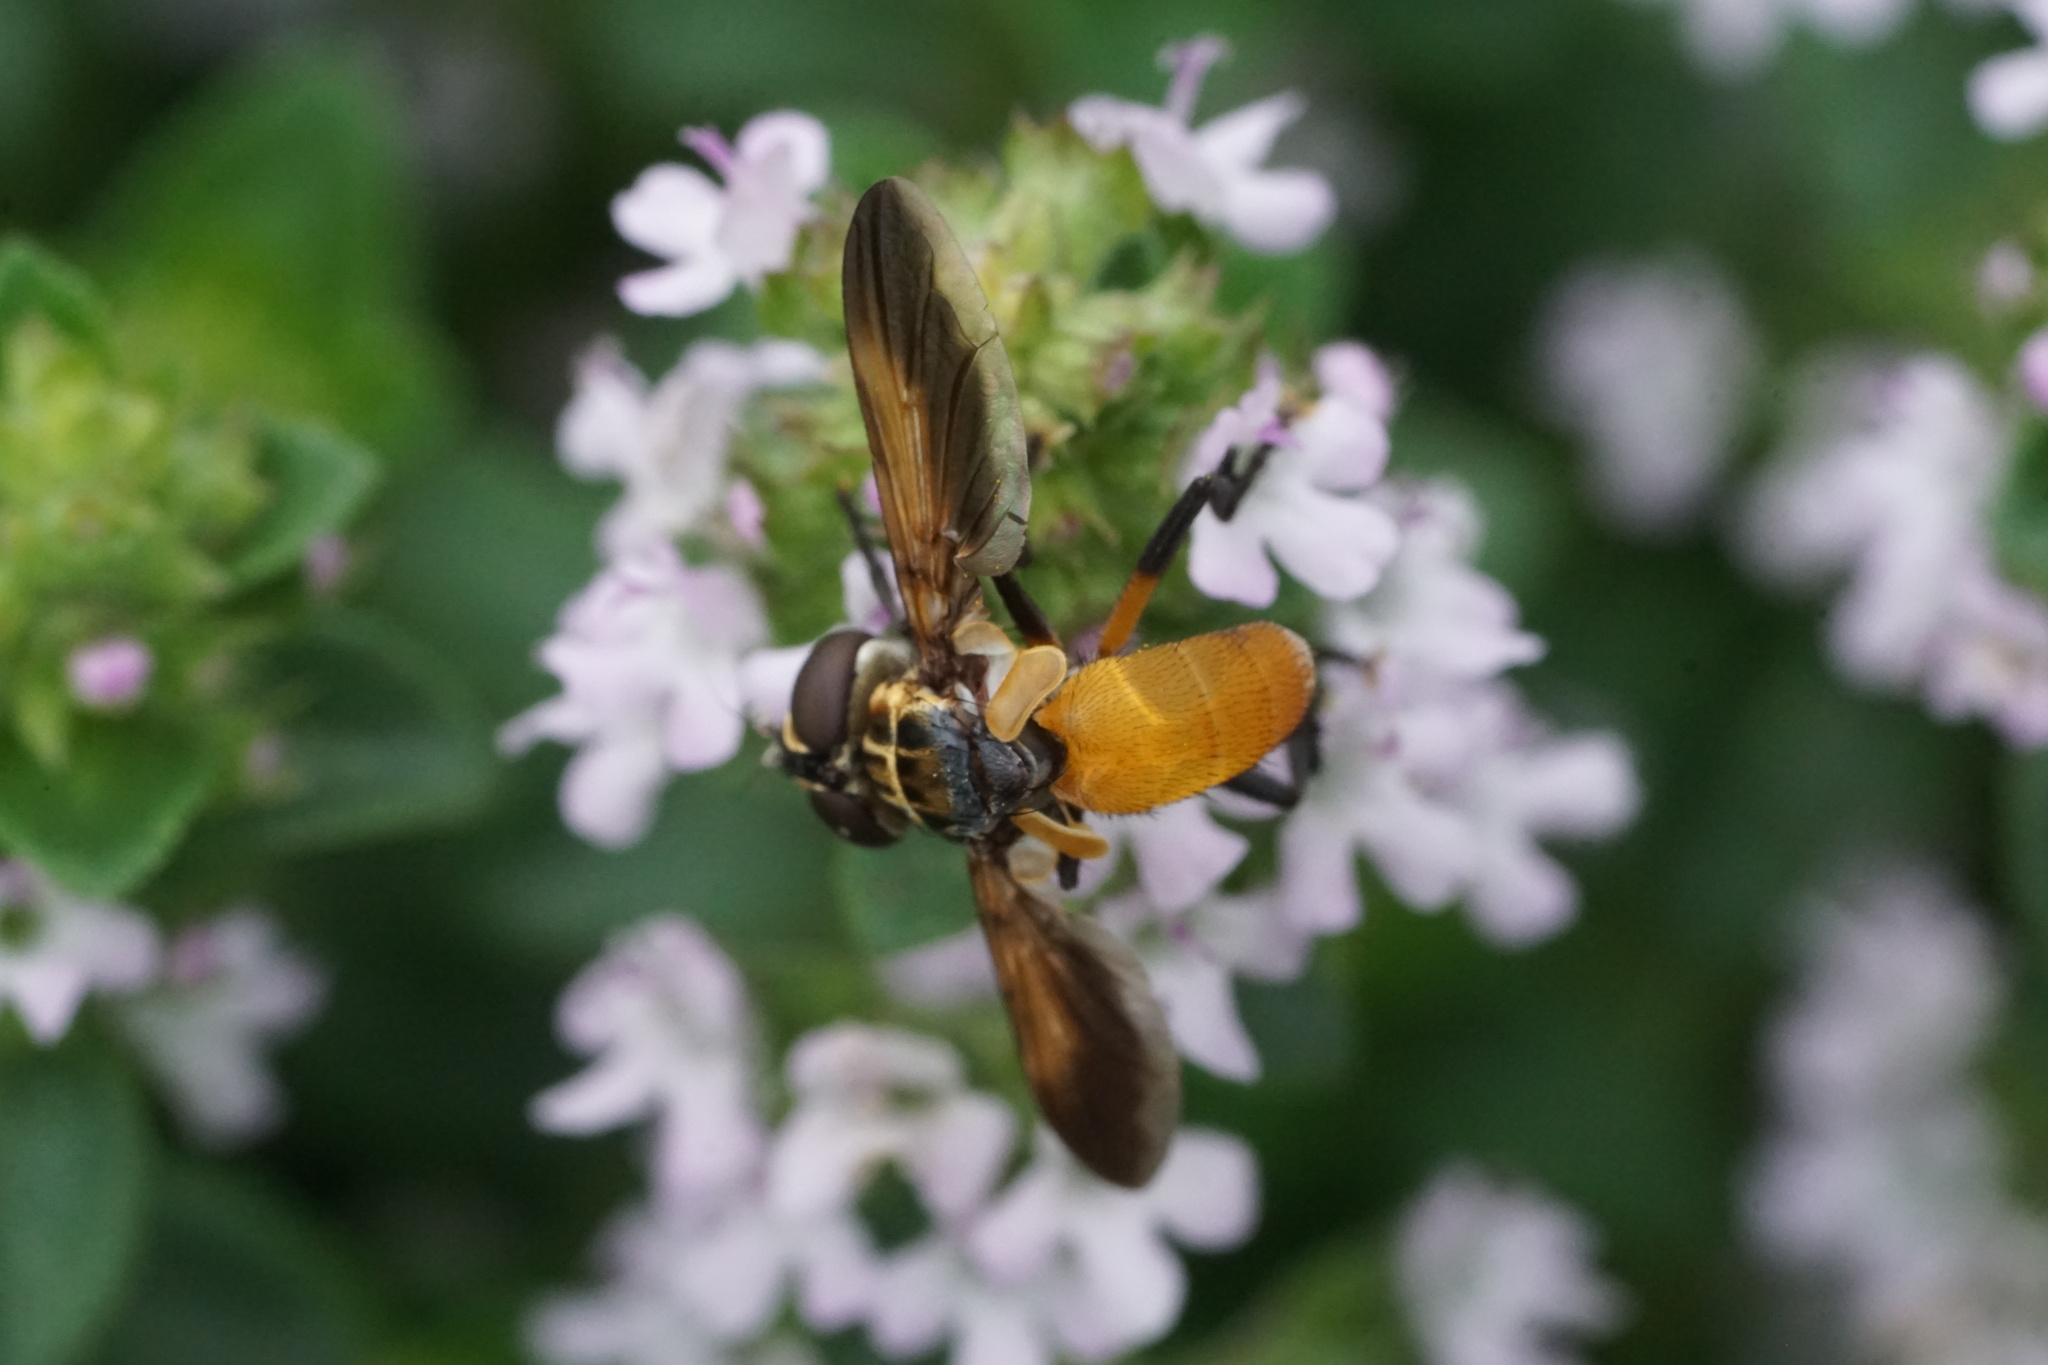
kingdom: Animalia
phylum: Arthropoda
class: Insecta
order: Diptera
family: Tachinidae
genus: Trichopoda
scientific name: Trichopoda pennipes
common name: Tachinid fly
